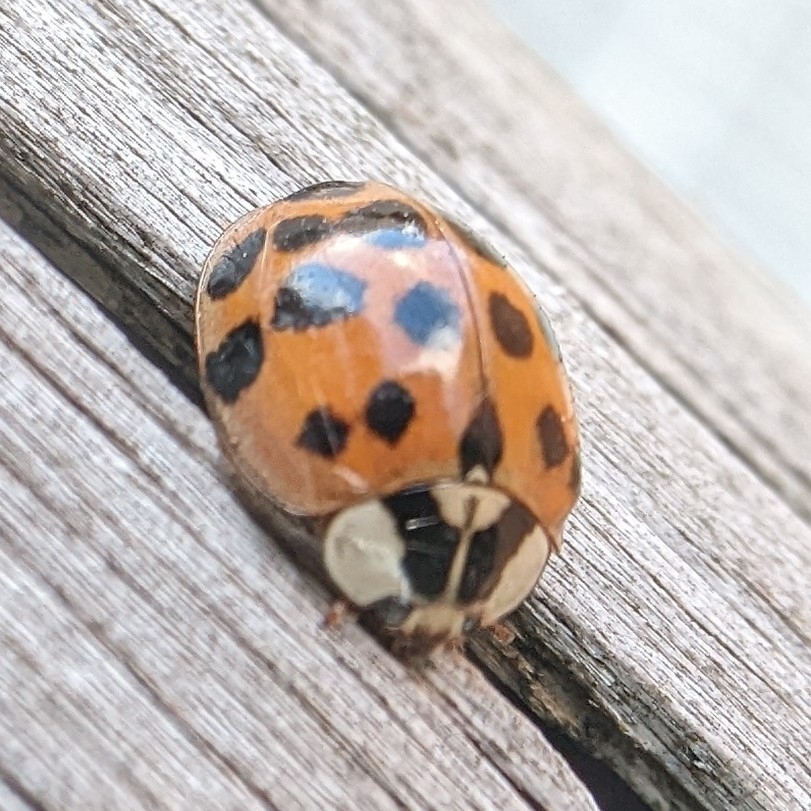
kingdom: Animalia
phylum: Arthropoda
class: Insecta
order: Coleoptera
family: Coccinellidae
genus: Harmonia
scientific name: Harmonia axyridis
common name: Harlequin ladybird
